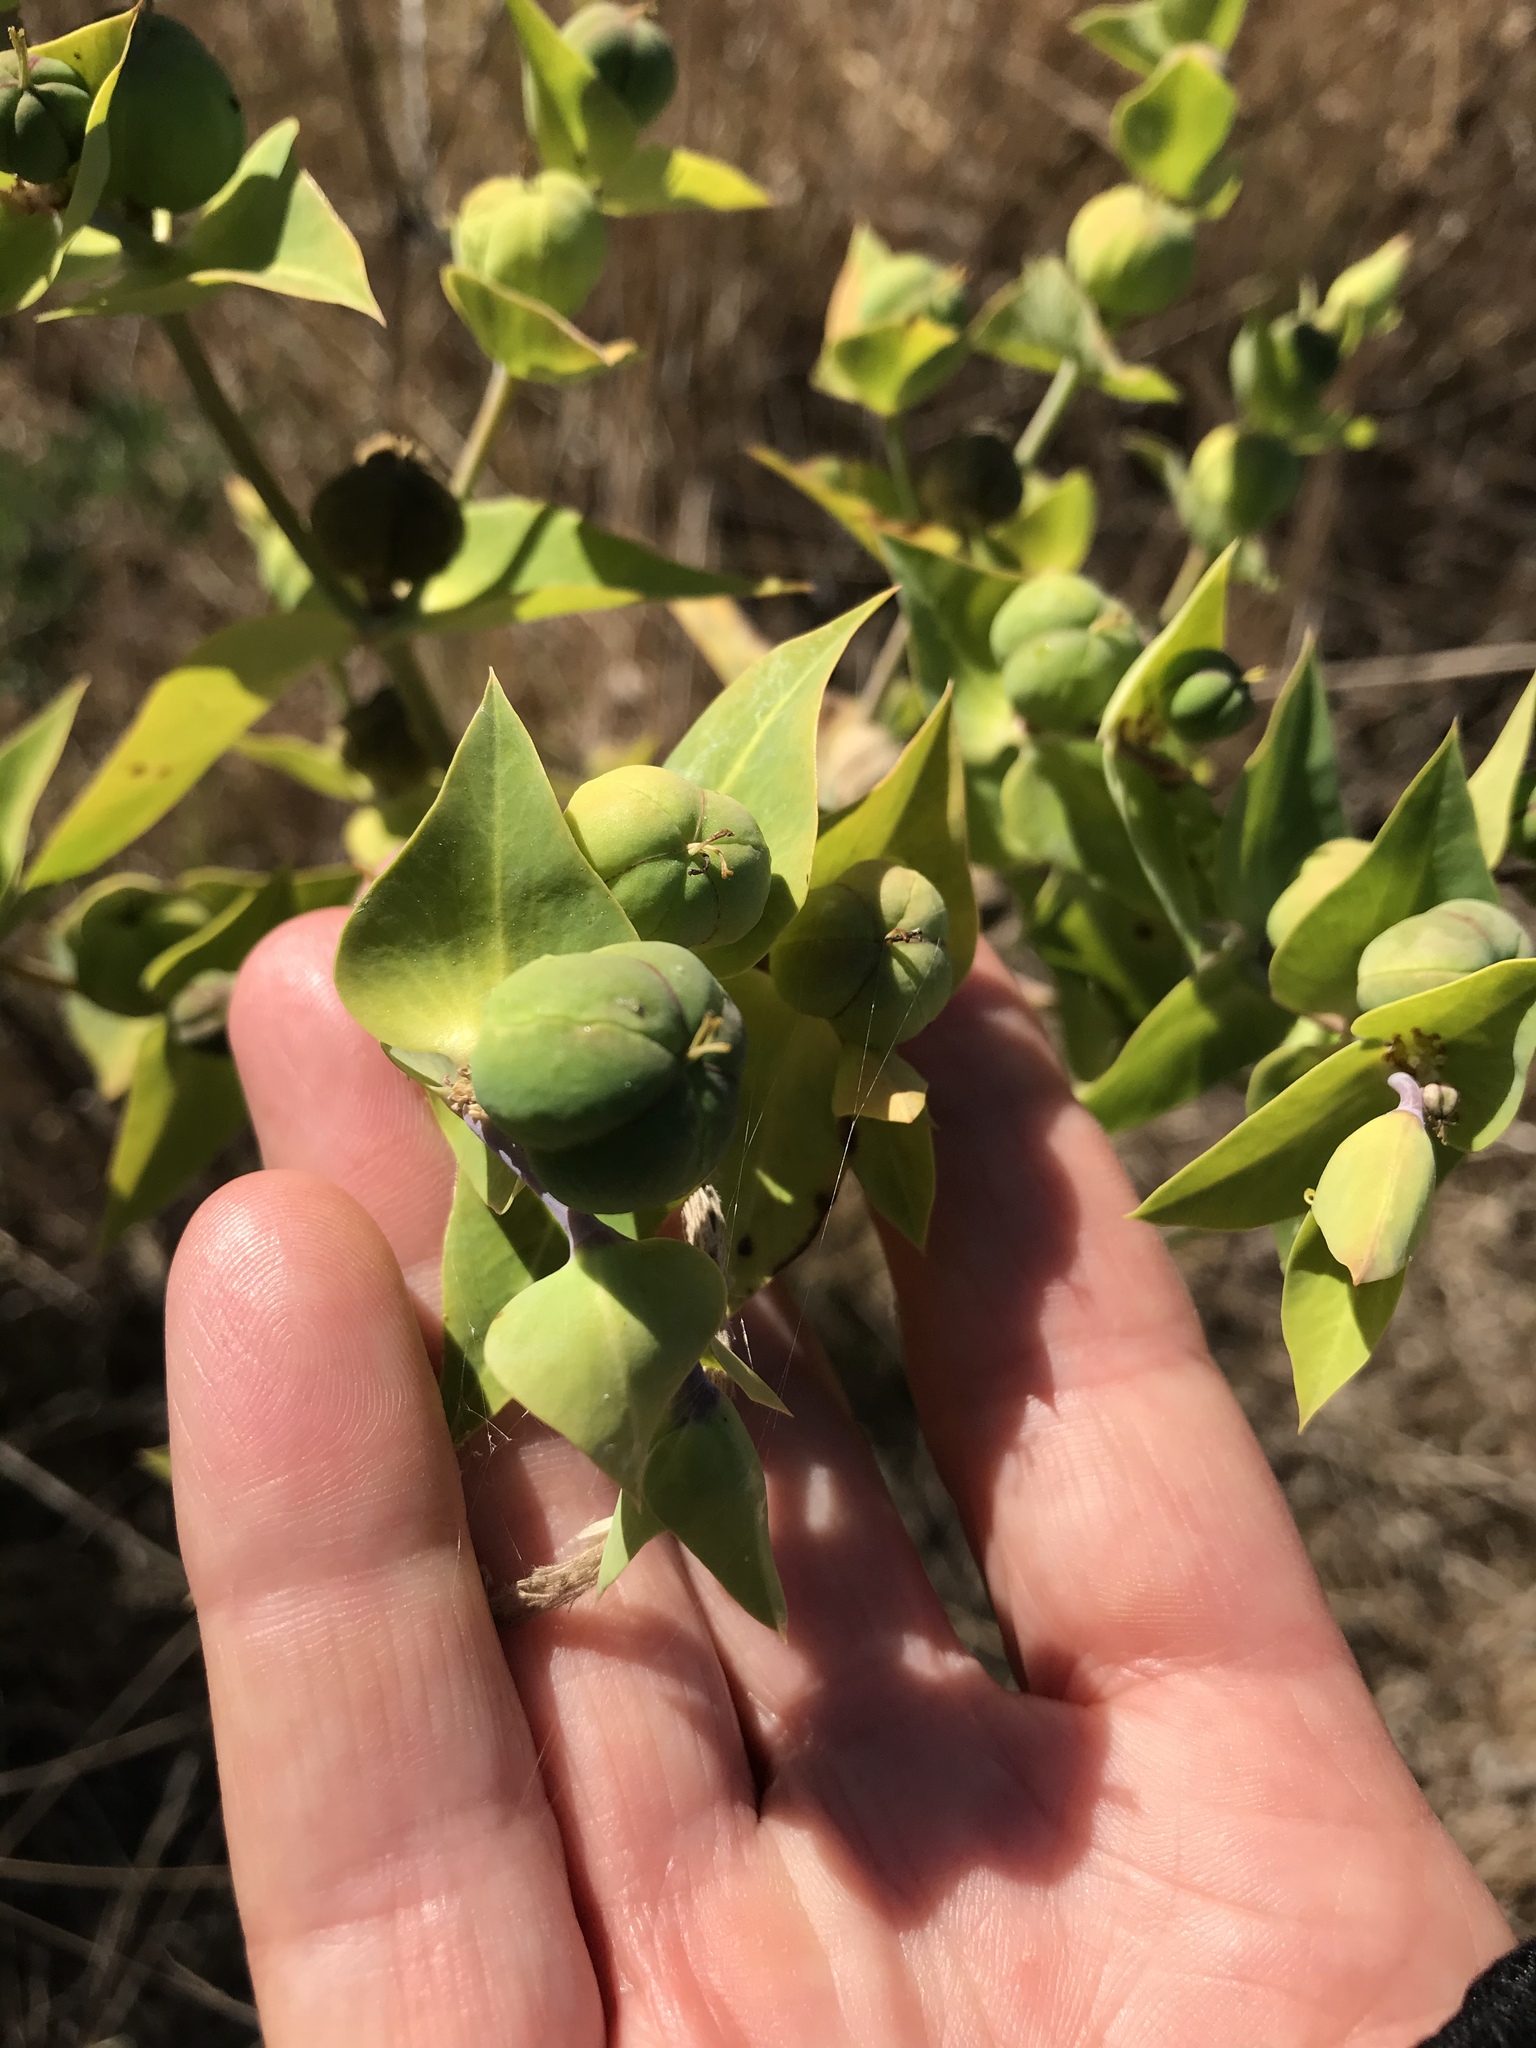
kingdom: Plantae
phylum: Tracheophyta
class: Magnoliopsida
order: Malpighiales
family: Euphorbiaceae
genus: Euphorbia
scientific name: Euphorbia lathyris
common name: Caper spurge
